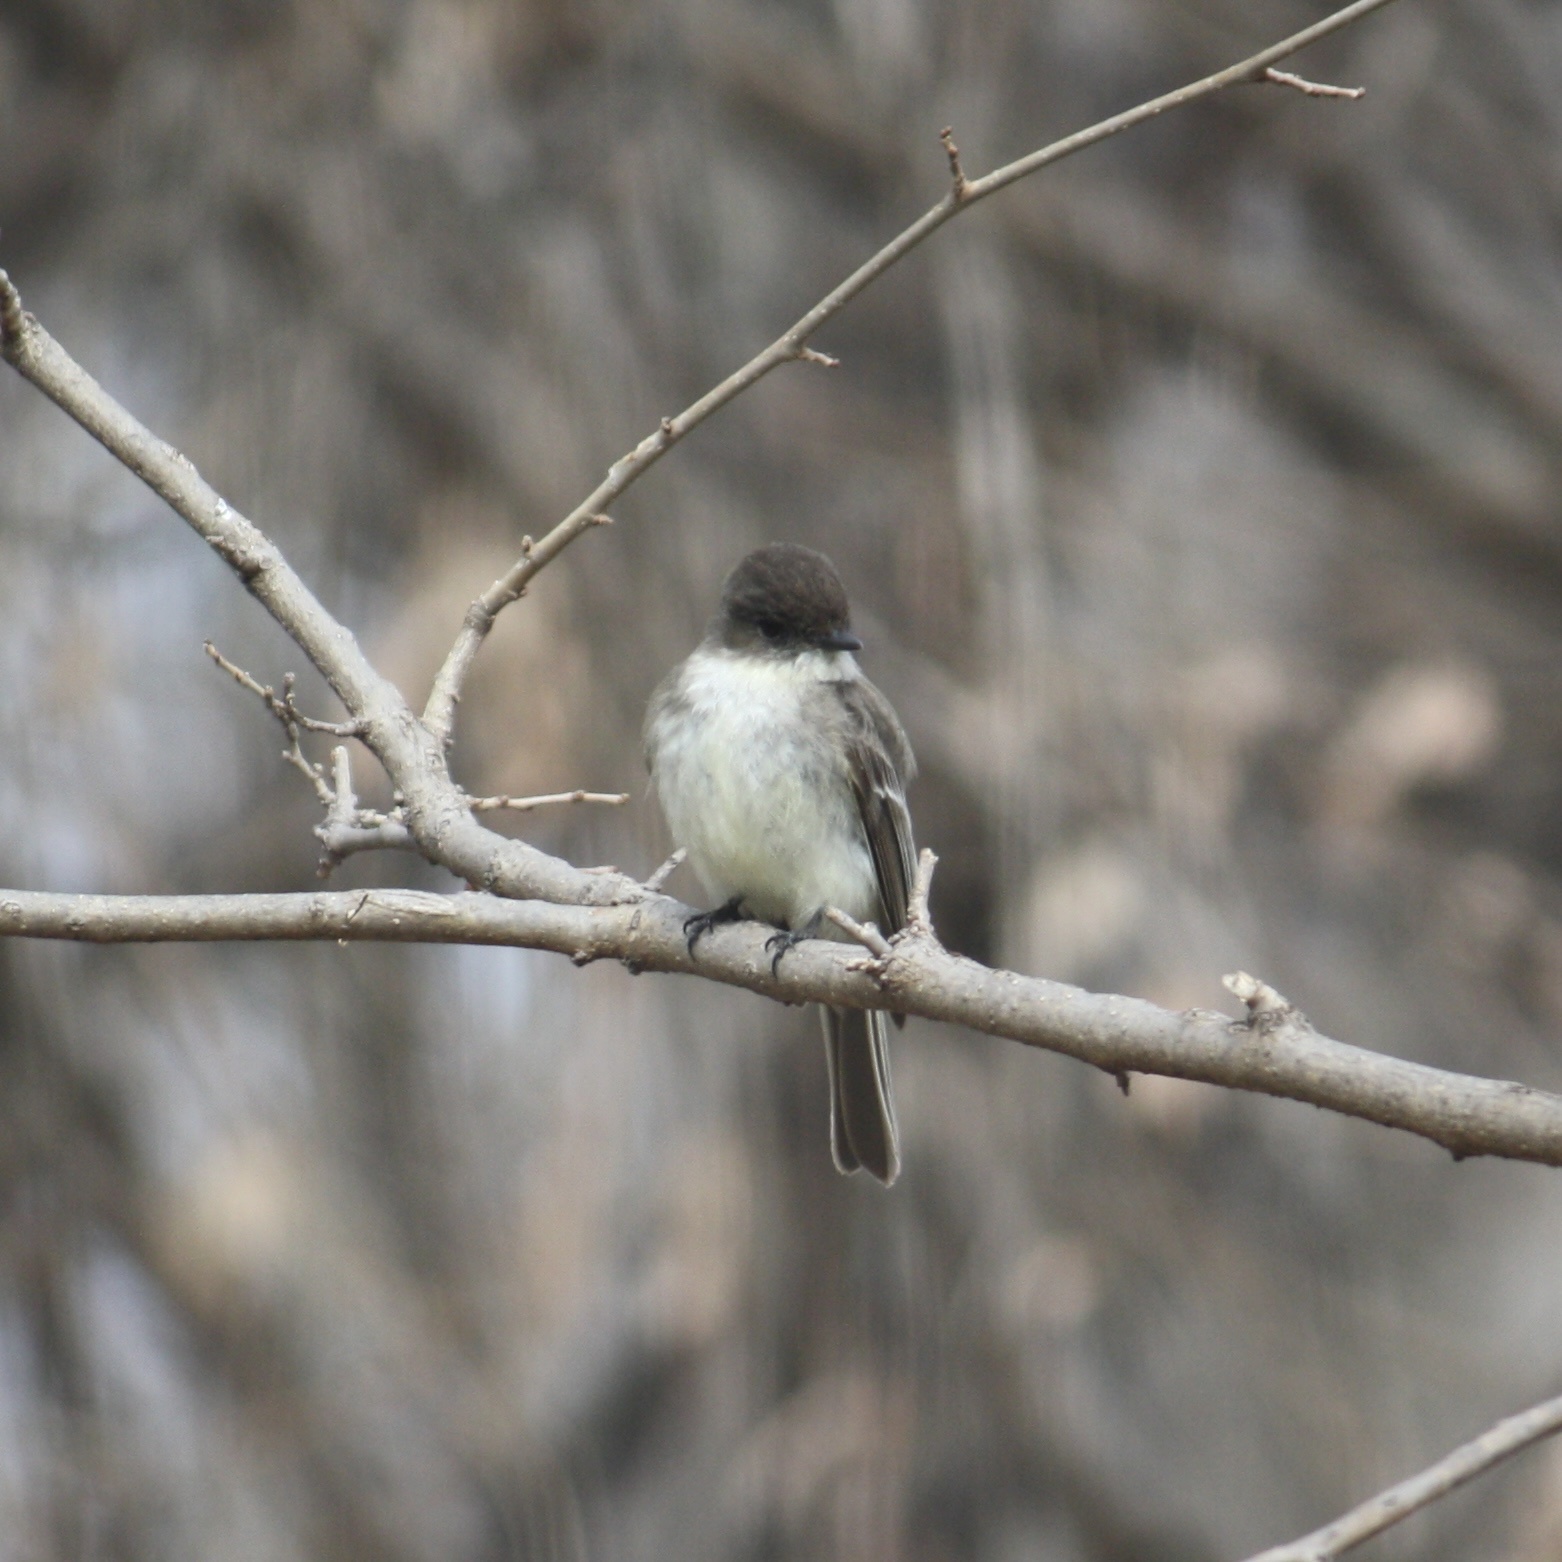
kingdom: Animalia
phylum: Chordata
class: Aves
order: Passeriformes
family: Tyrannidae
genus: Sayornis
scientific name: Sayornis phoebe
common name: Eastern phoebe
